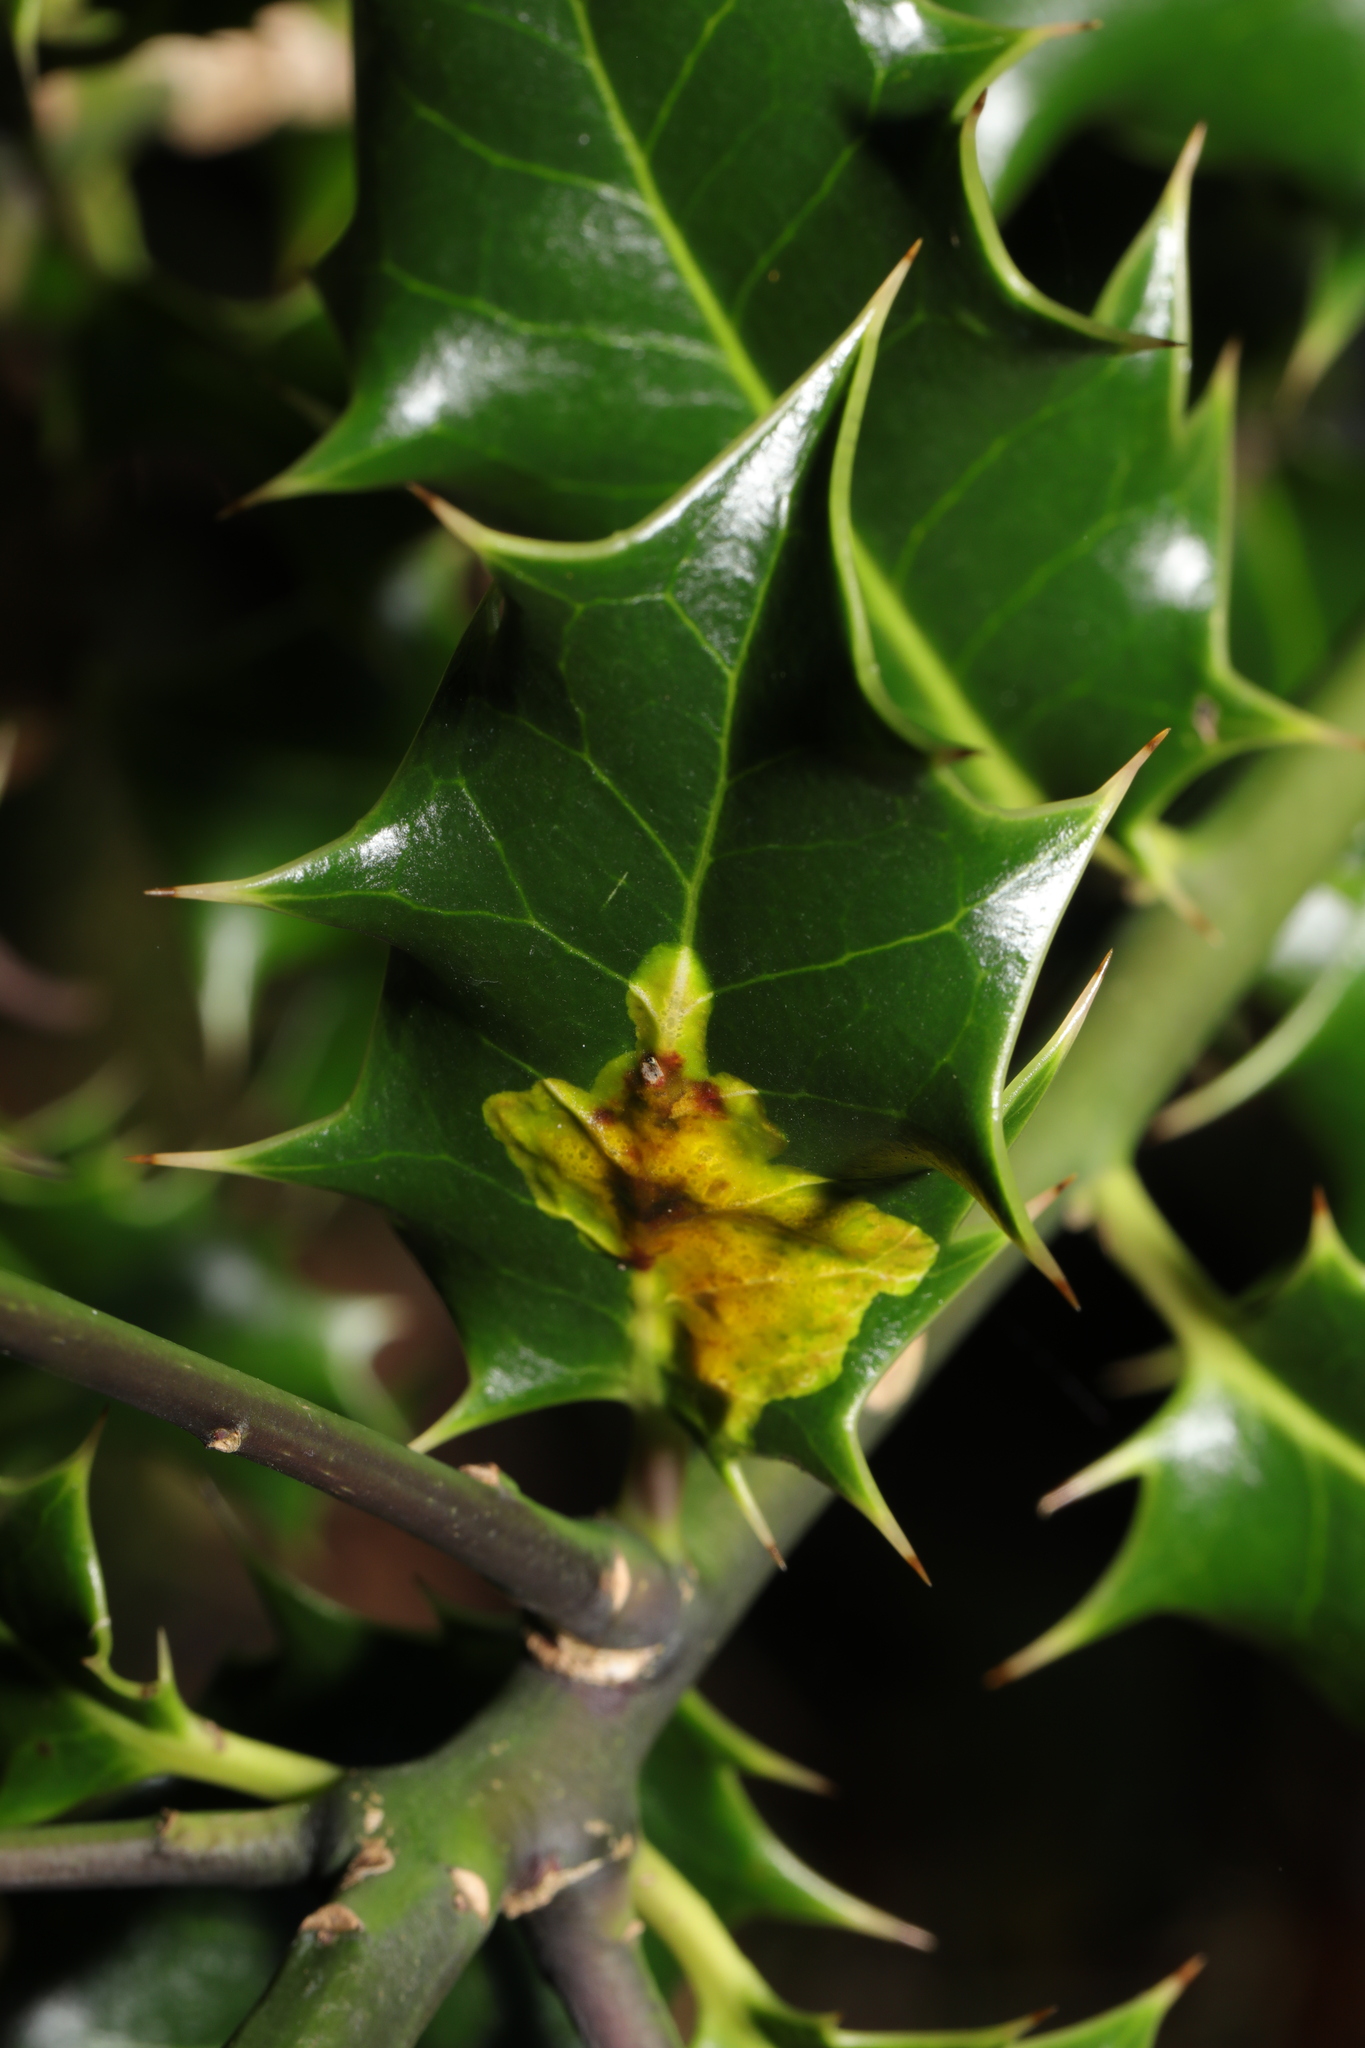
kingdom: Animalia
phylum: Arthropoda
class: Insecta
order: Diptera
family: Agromyzidae
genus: Phytomyza
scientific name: Phytomyza ilicis
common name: Holly leafminer
